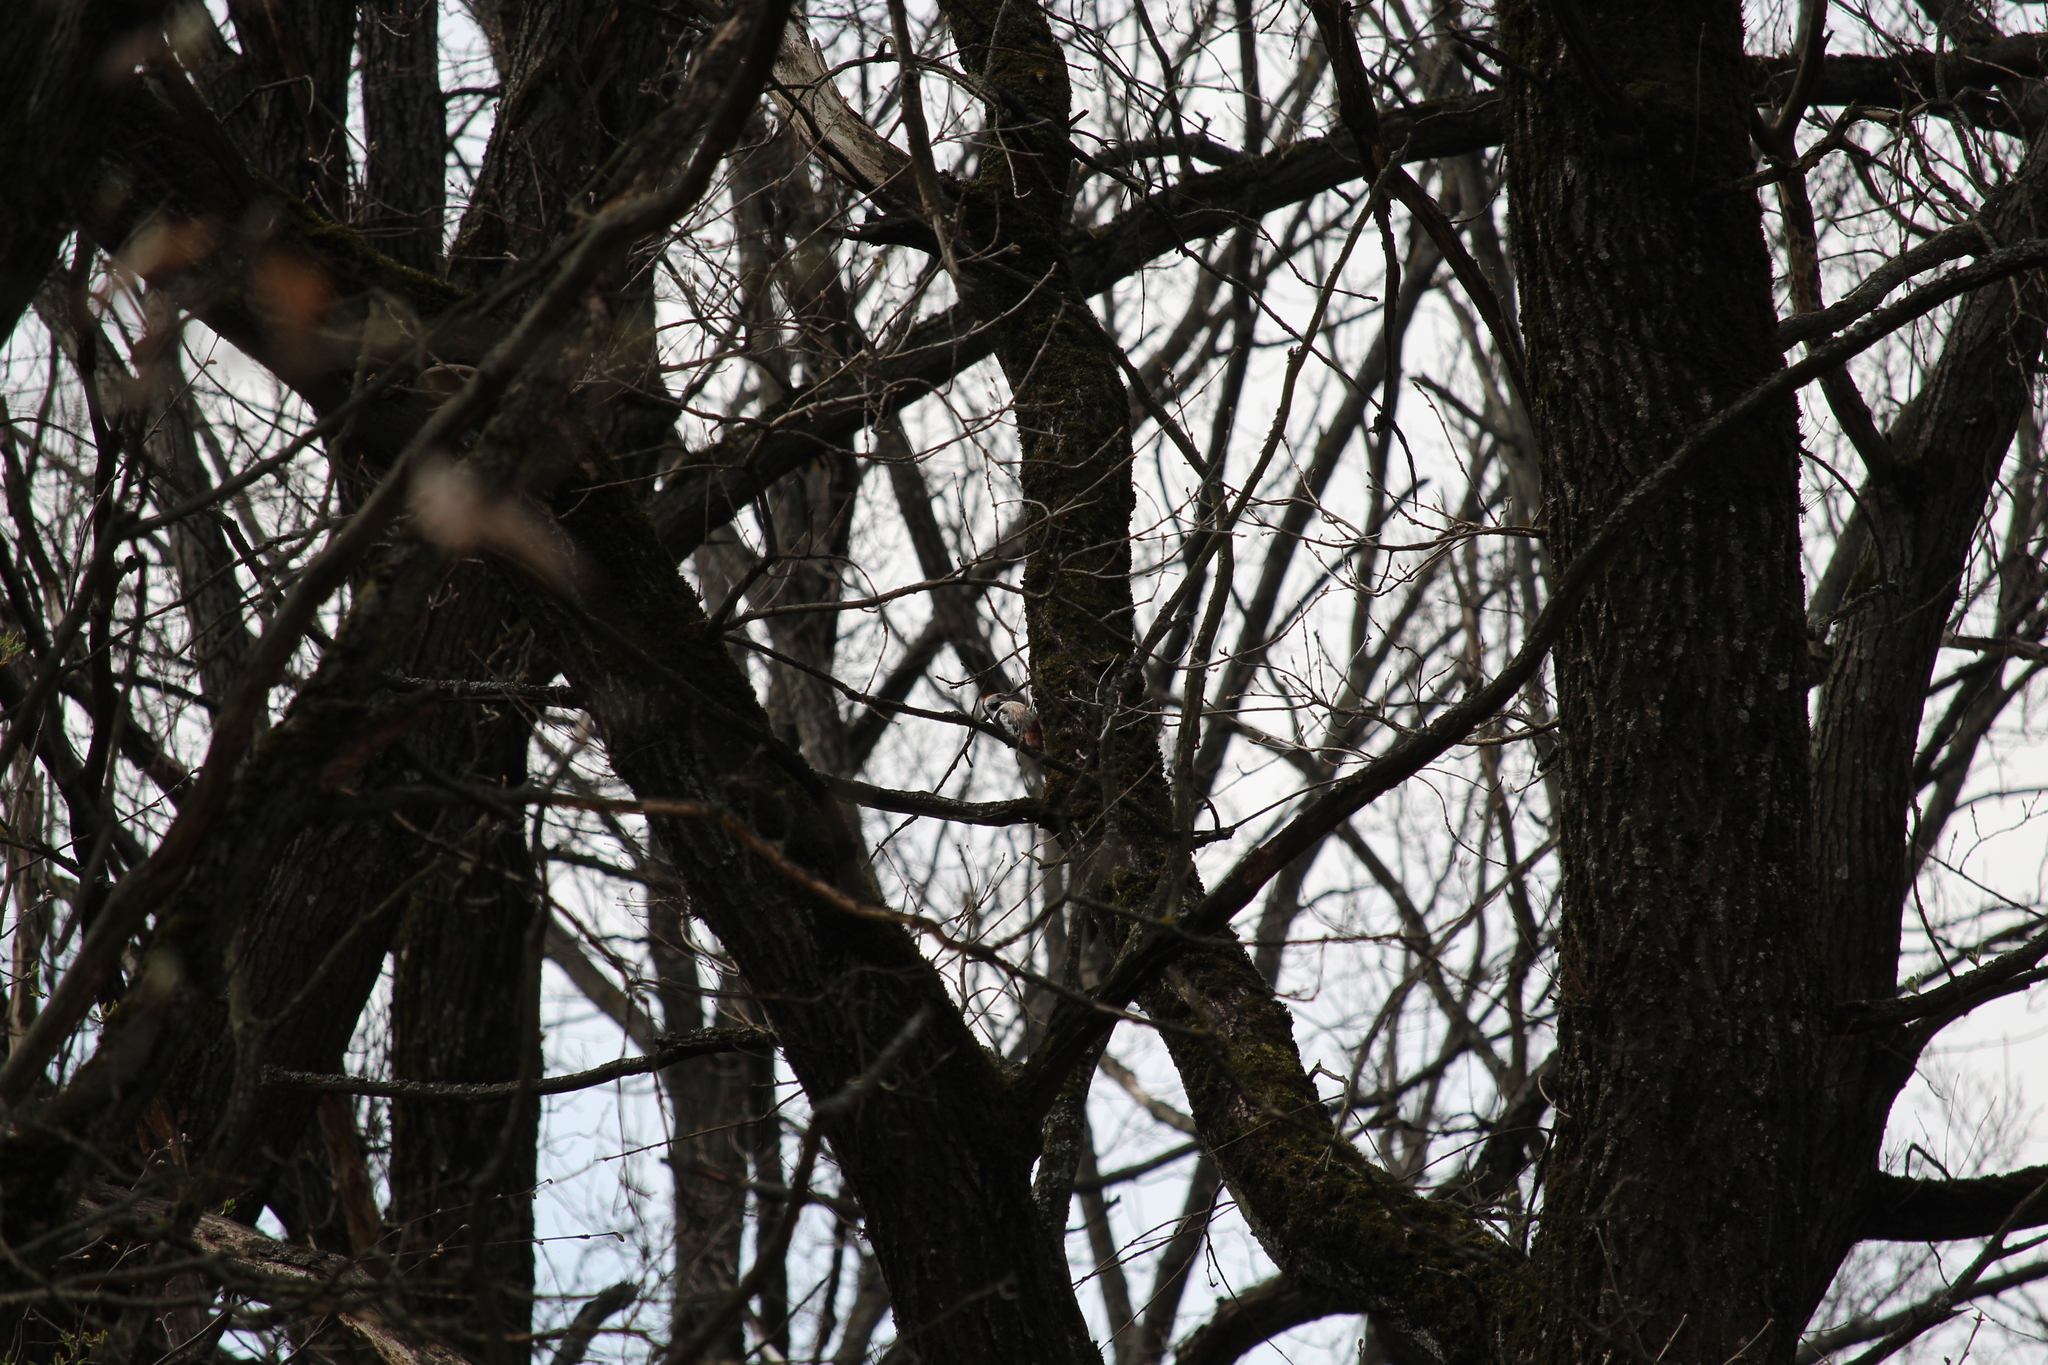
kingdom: Animalia
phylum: Chordata
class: Aves
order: Piciformes
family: Picidae
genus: Dendrocoptes
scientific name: Dendrocoptes medius
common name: Middle spotted woodpecker
